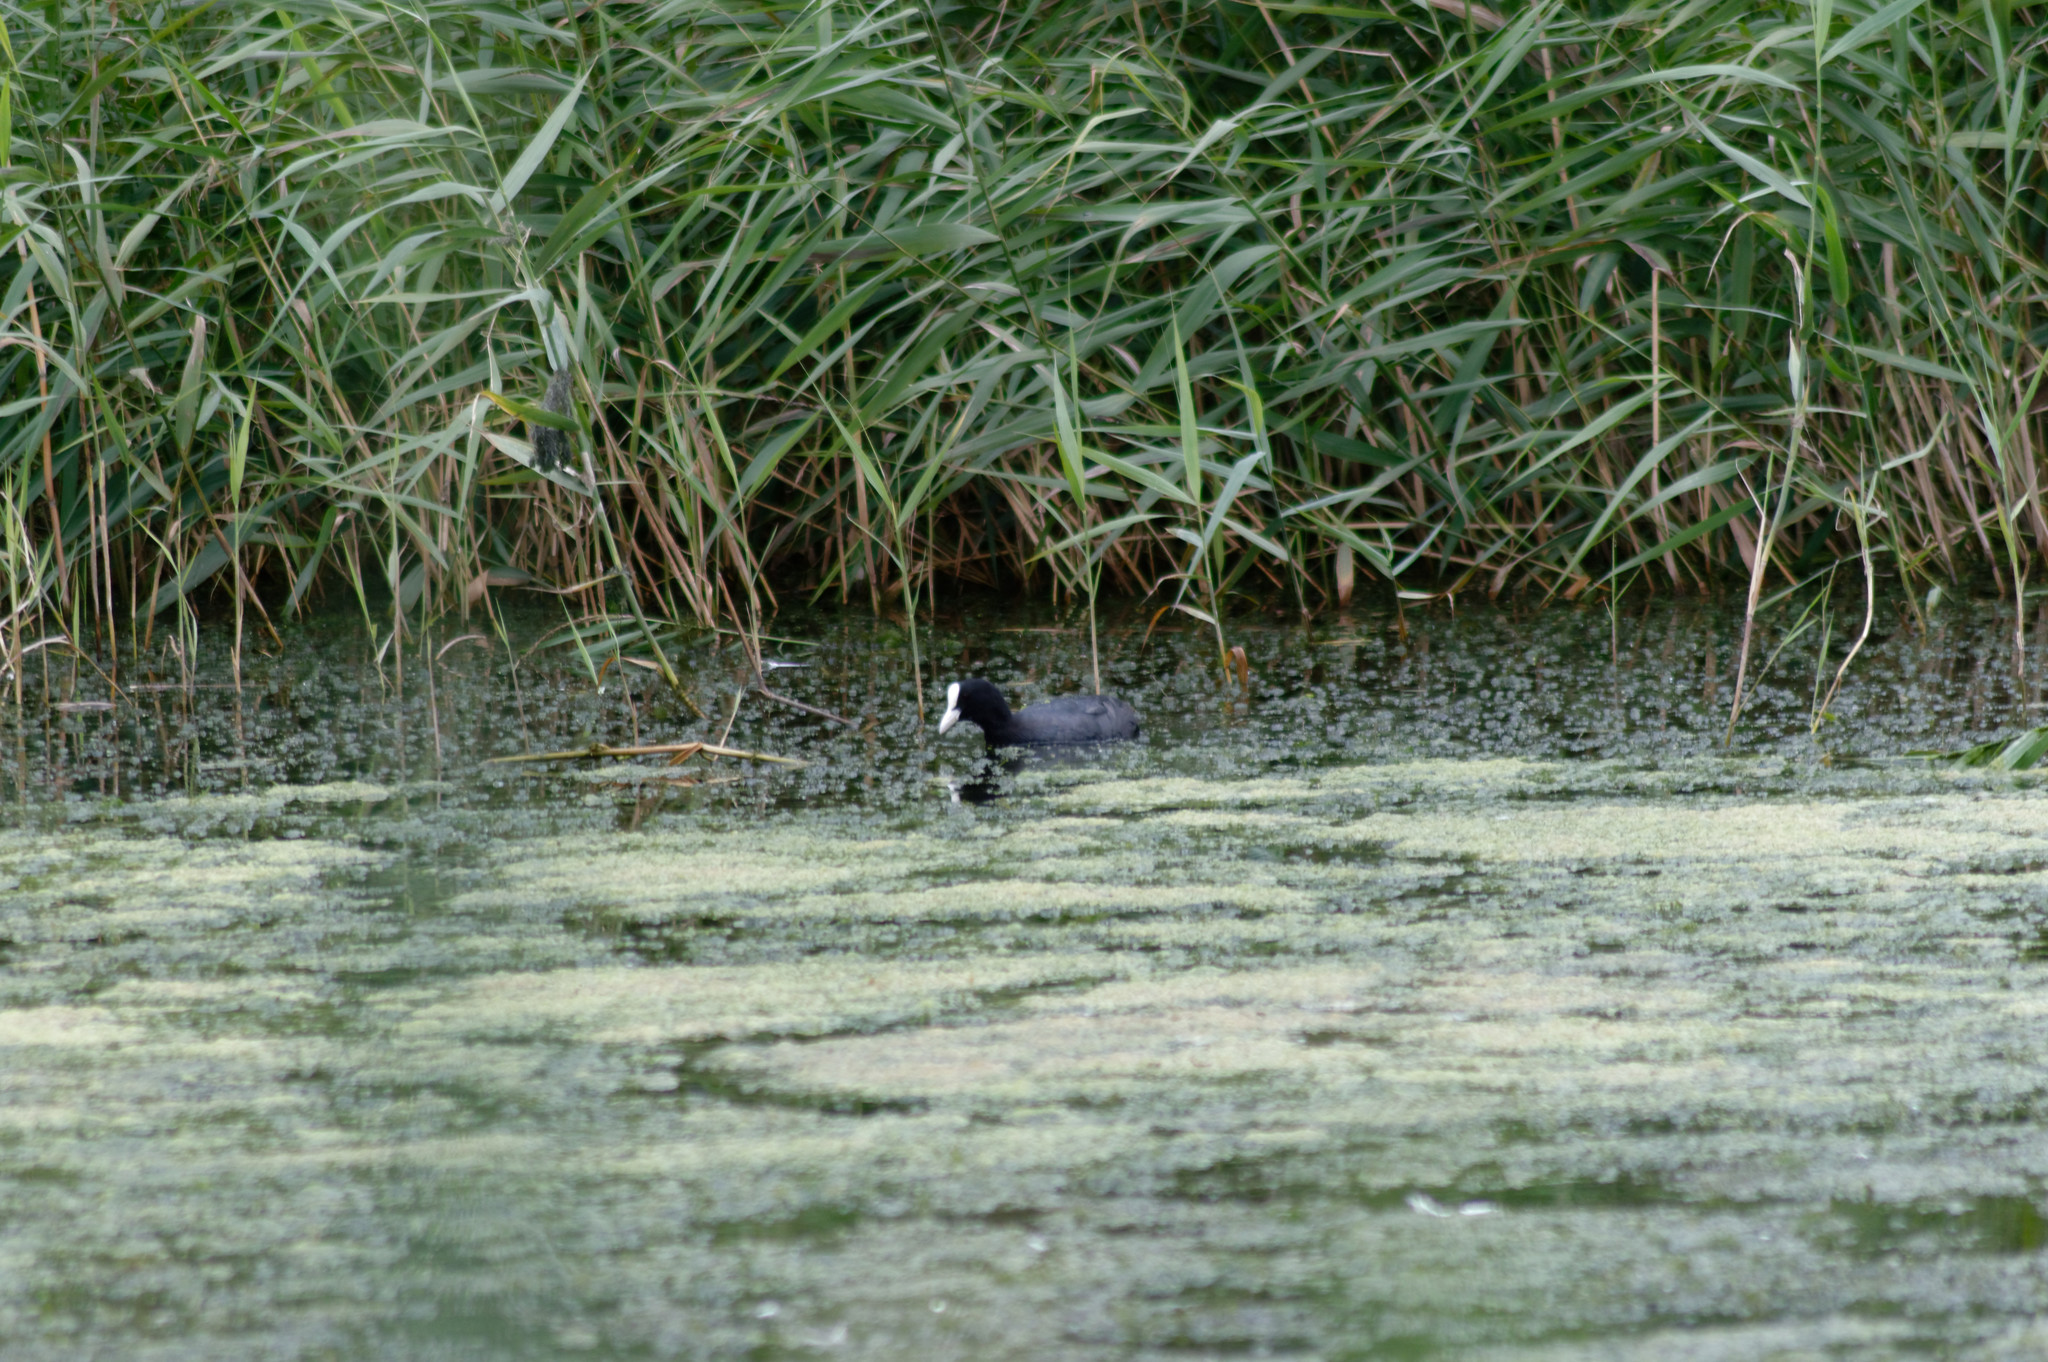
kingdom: Animalia
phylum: Chordata
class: Aves
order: Gruiformes
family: Rallidae
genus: Fulica
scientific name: Fulica atra
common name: Eurasian coot
